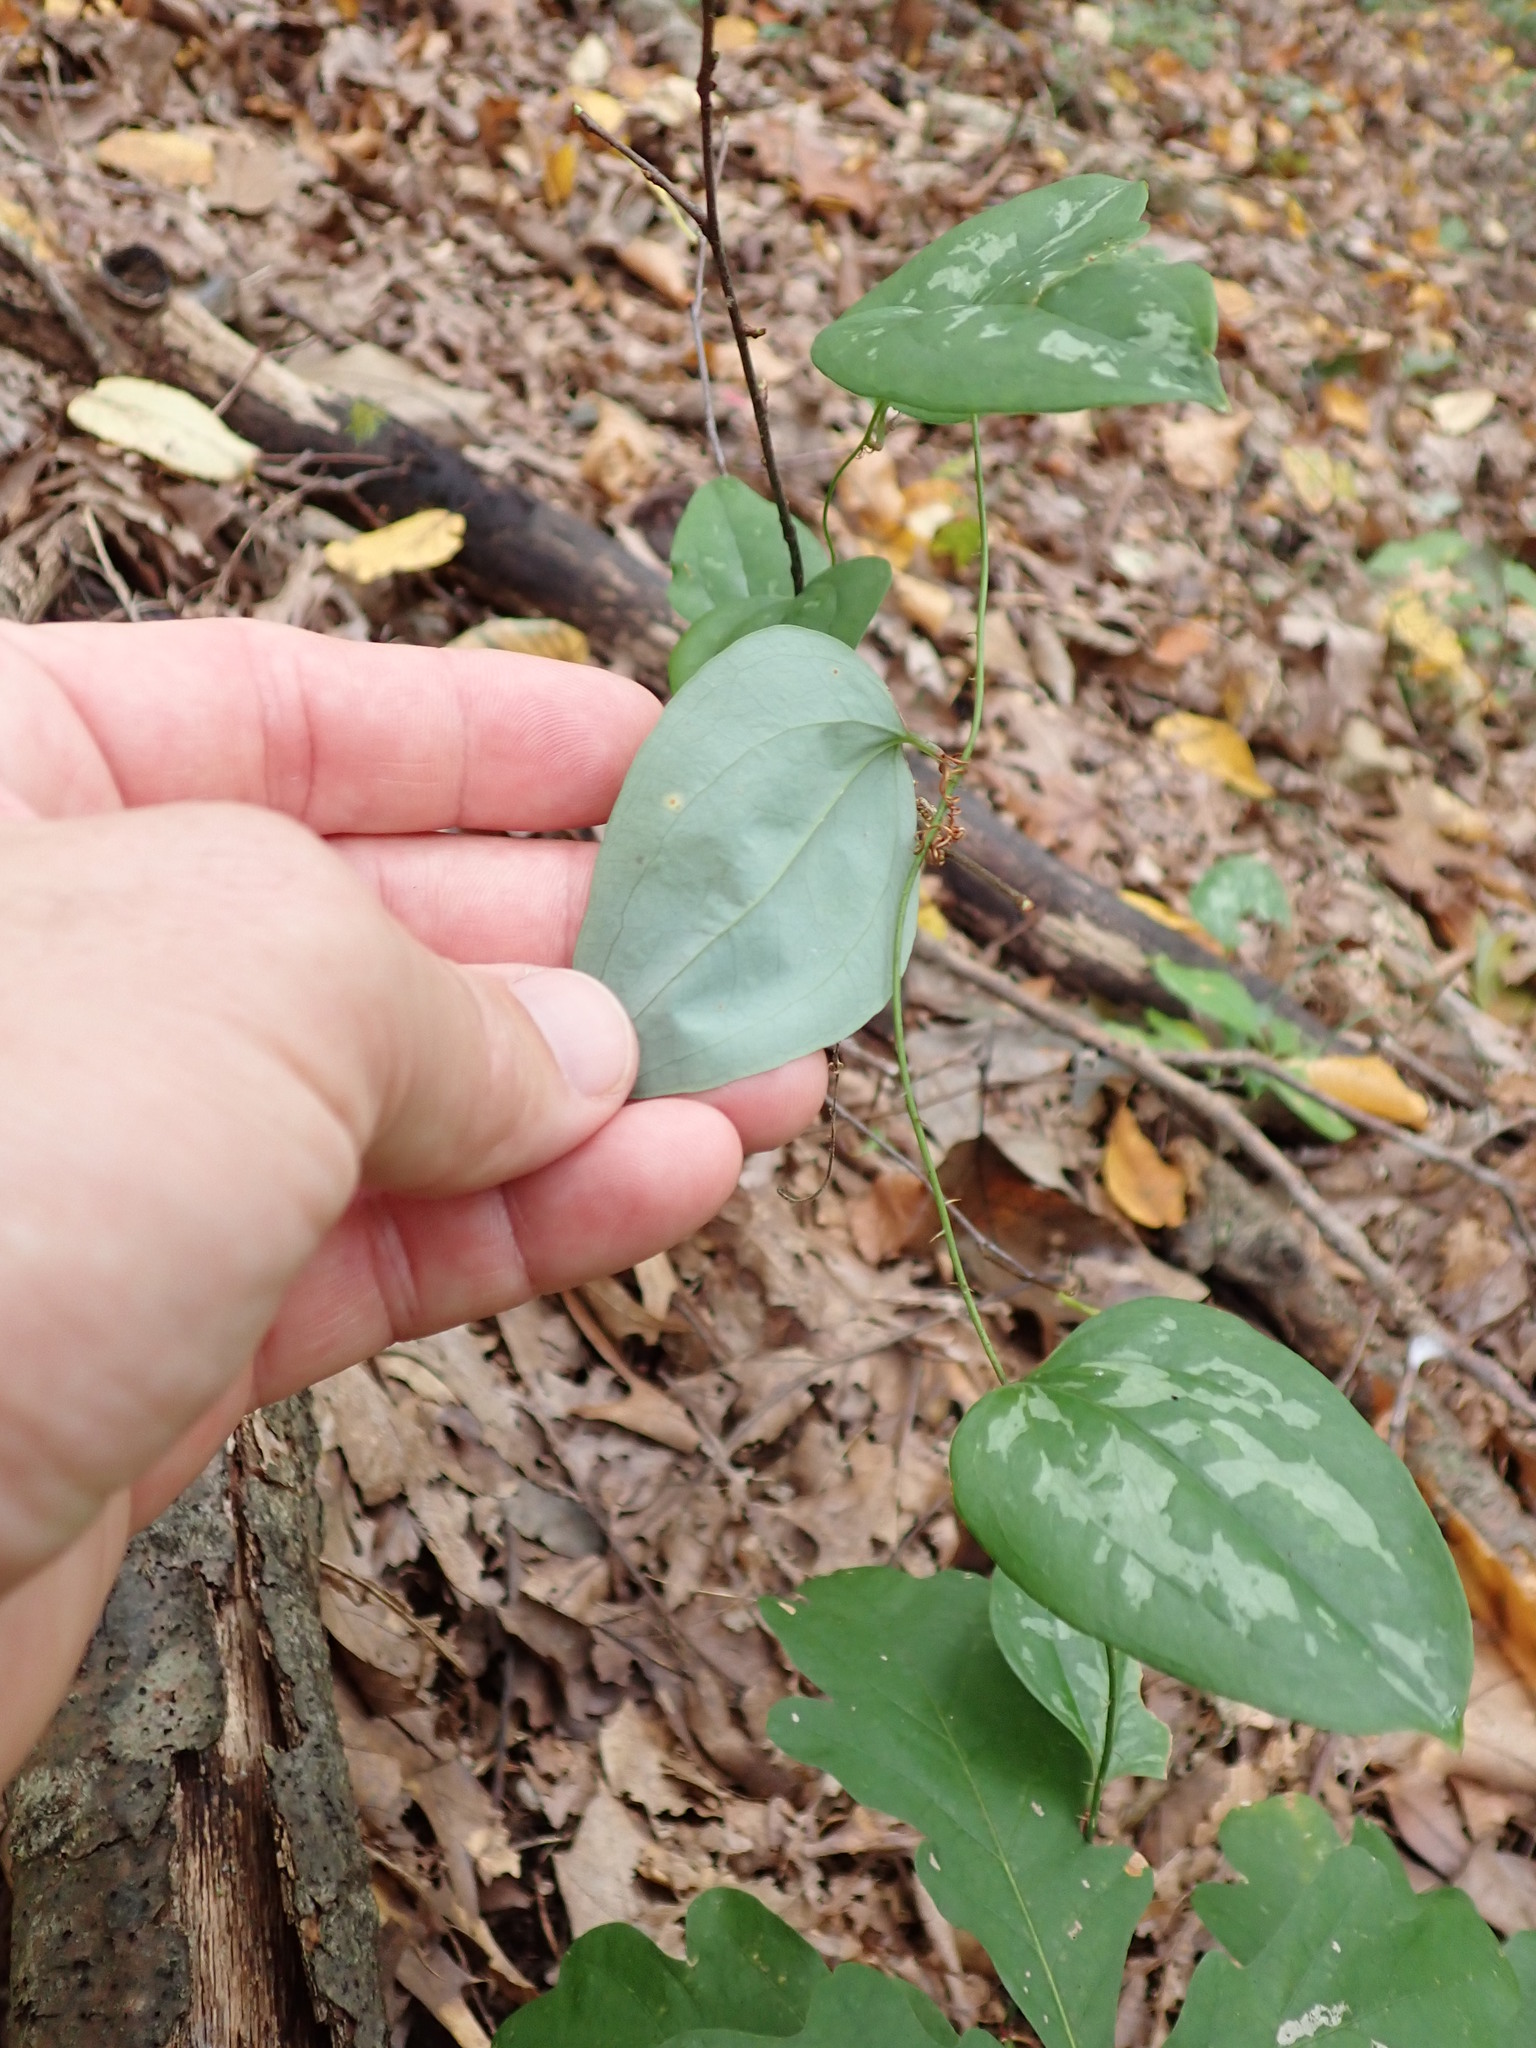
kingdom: Plantae
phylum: Tracheophyta
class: Liliopsida
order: Liliales
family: Smilacaceae
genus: Smilax
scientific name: Smilax glauca
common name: Cat greenbrier
